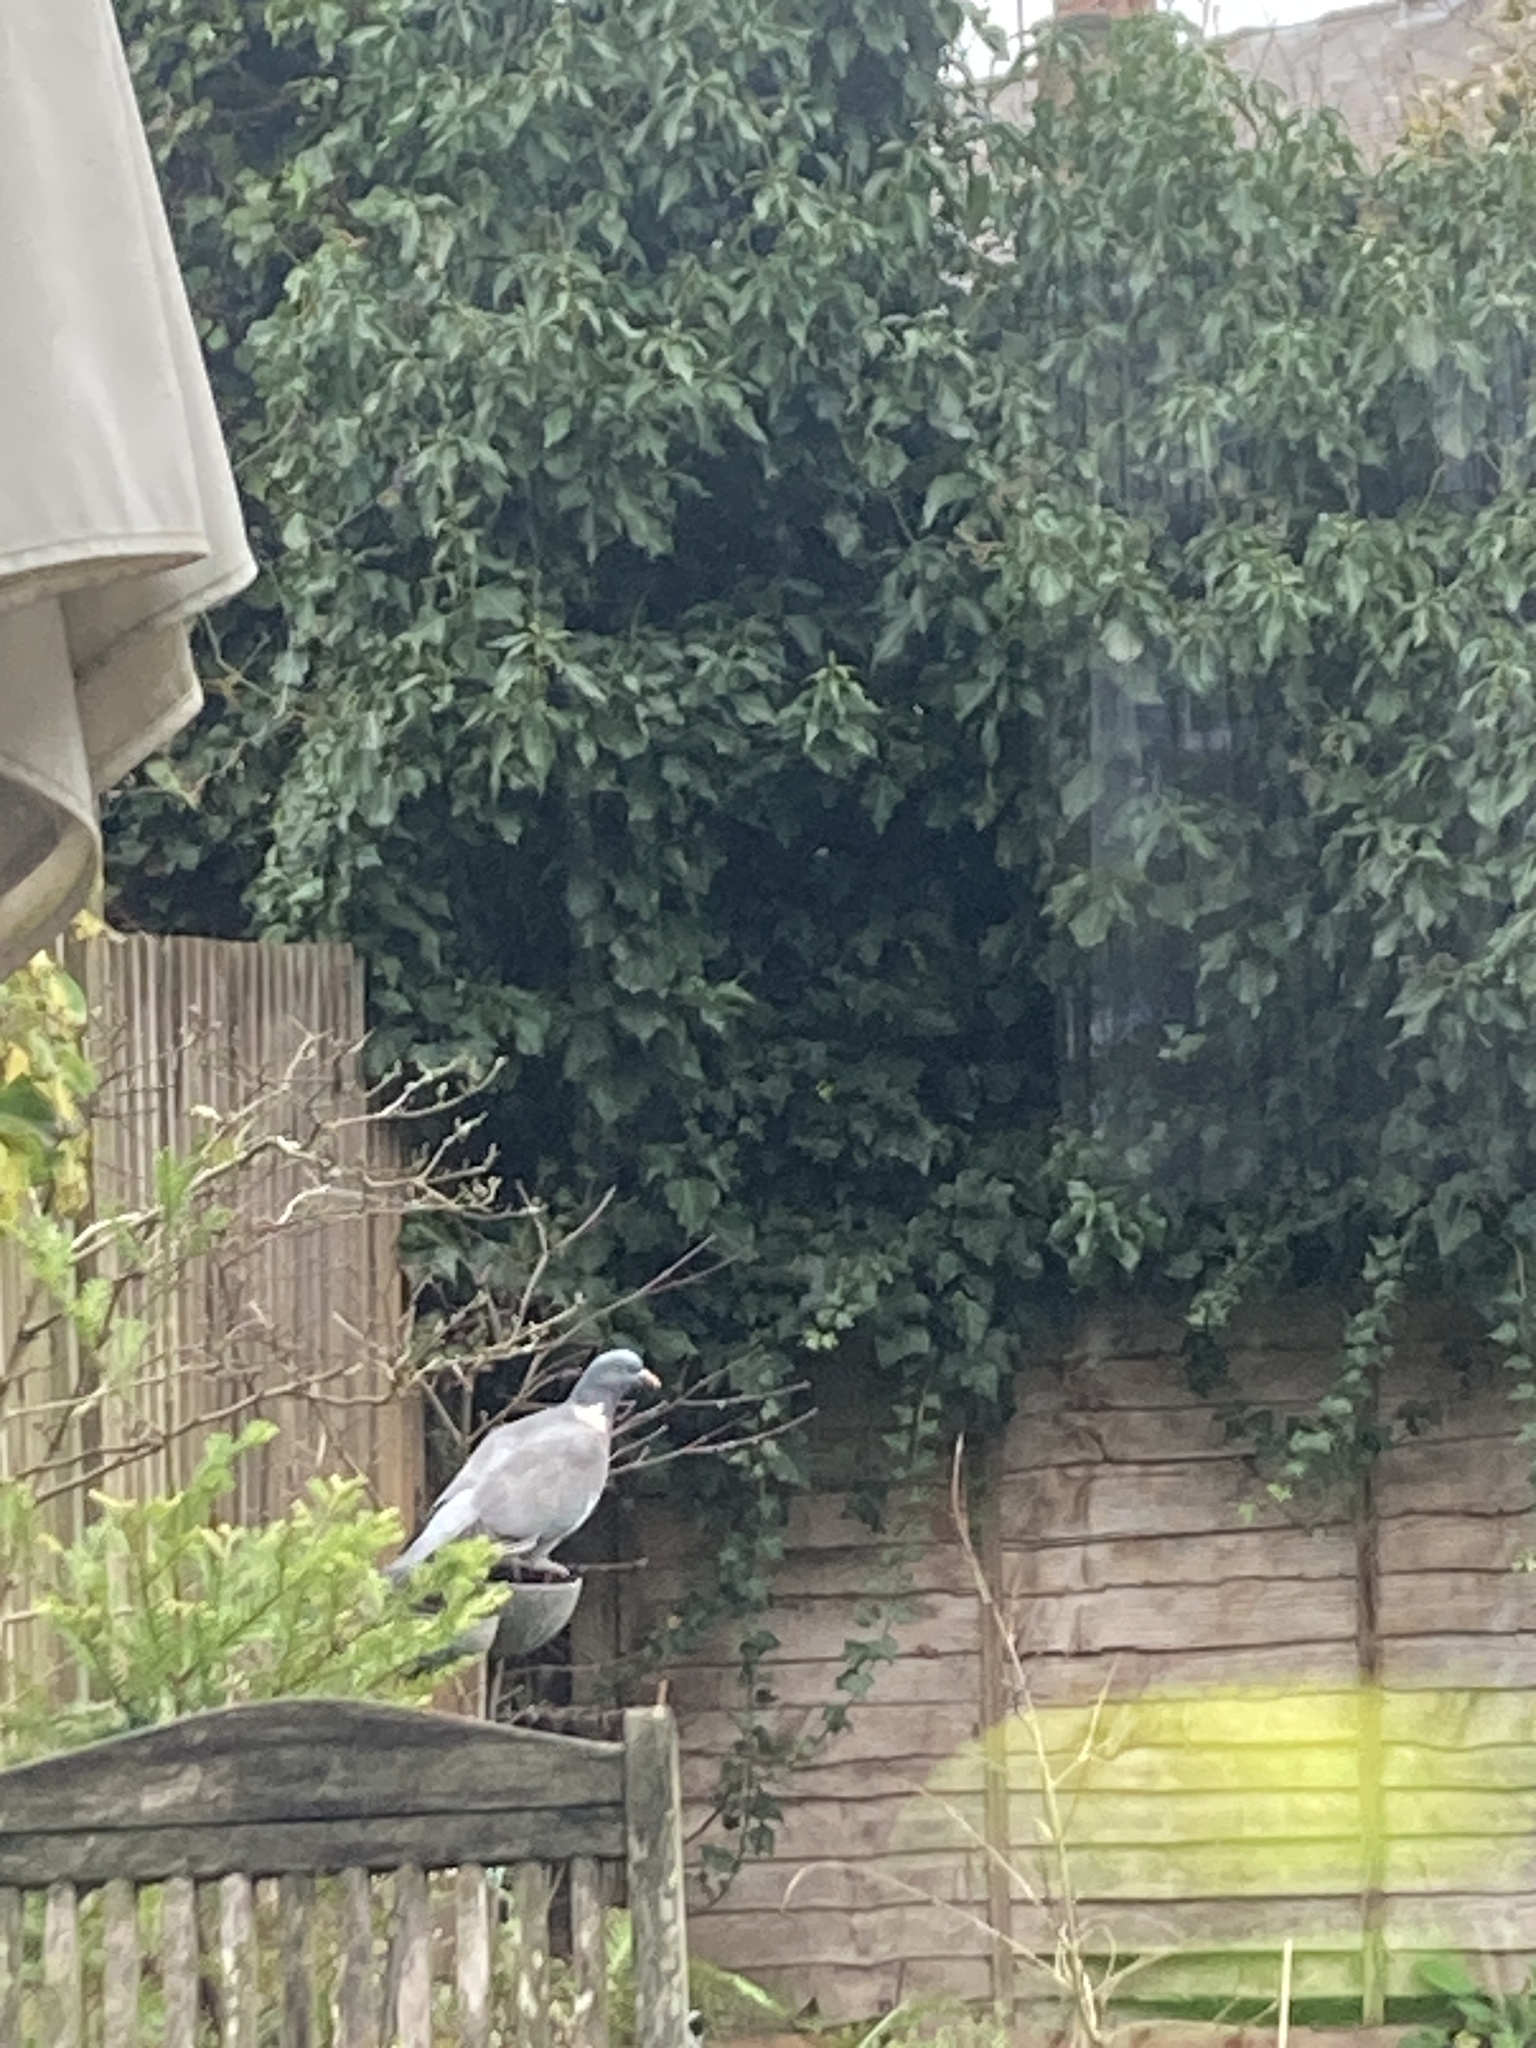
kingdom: Animalia
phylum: Chordata
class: Aves
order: Columbiformes
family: Columbidae
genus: Columba
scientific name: Columba palumbus
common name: Common wood pigeon
